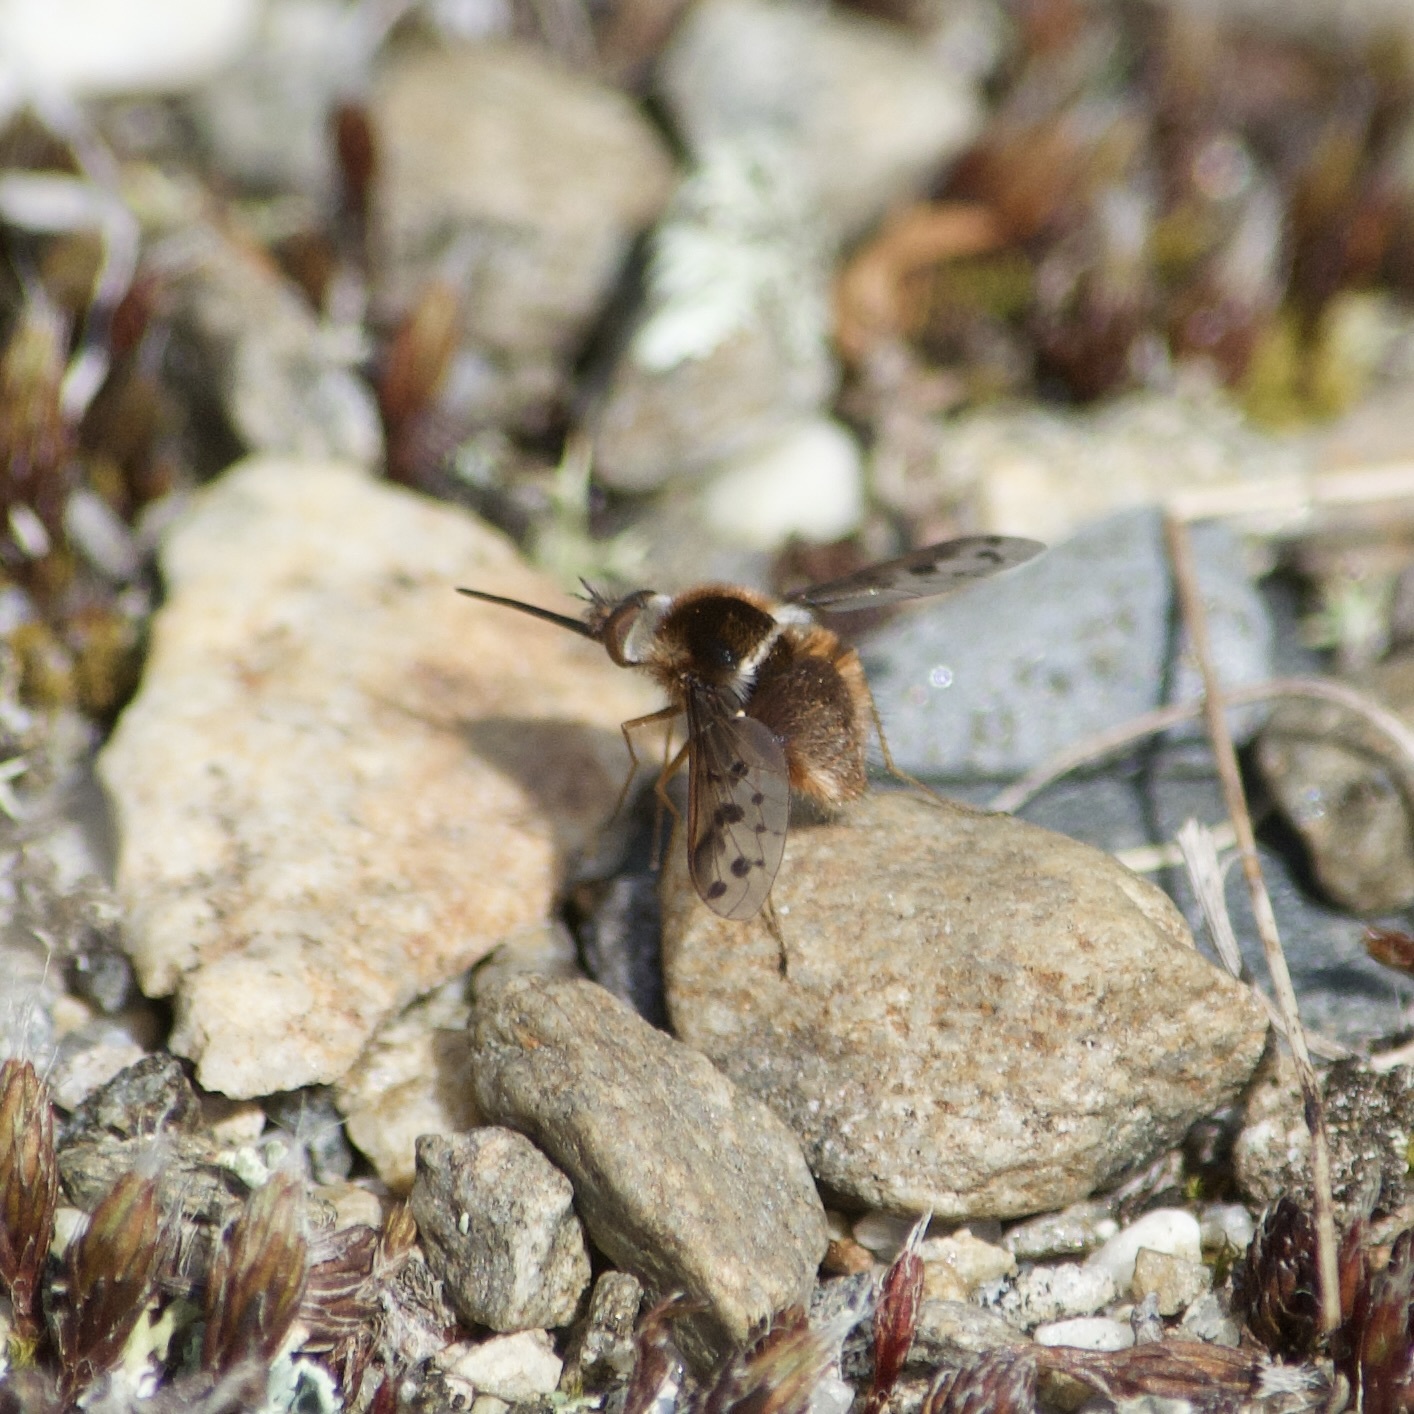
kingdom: Animalia
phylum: Arthropoda
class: Insecta
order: Diptera
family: Bombyliidae
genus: Bombylius
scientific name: Bombylius pygmaeus
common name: Pygmy bee fly
